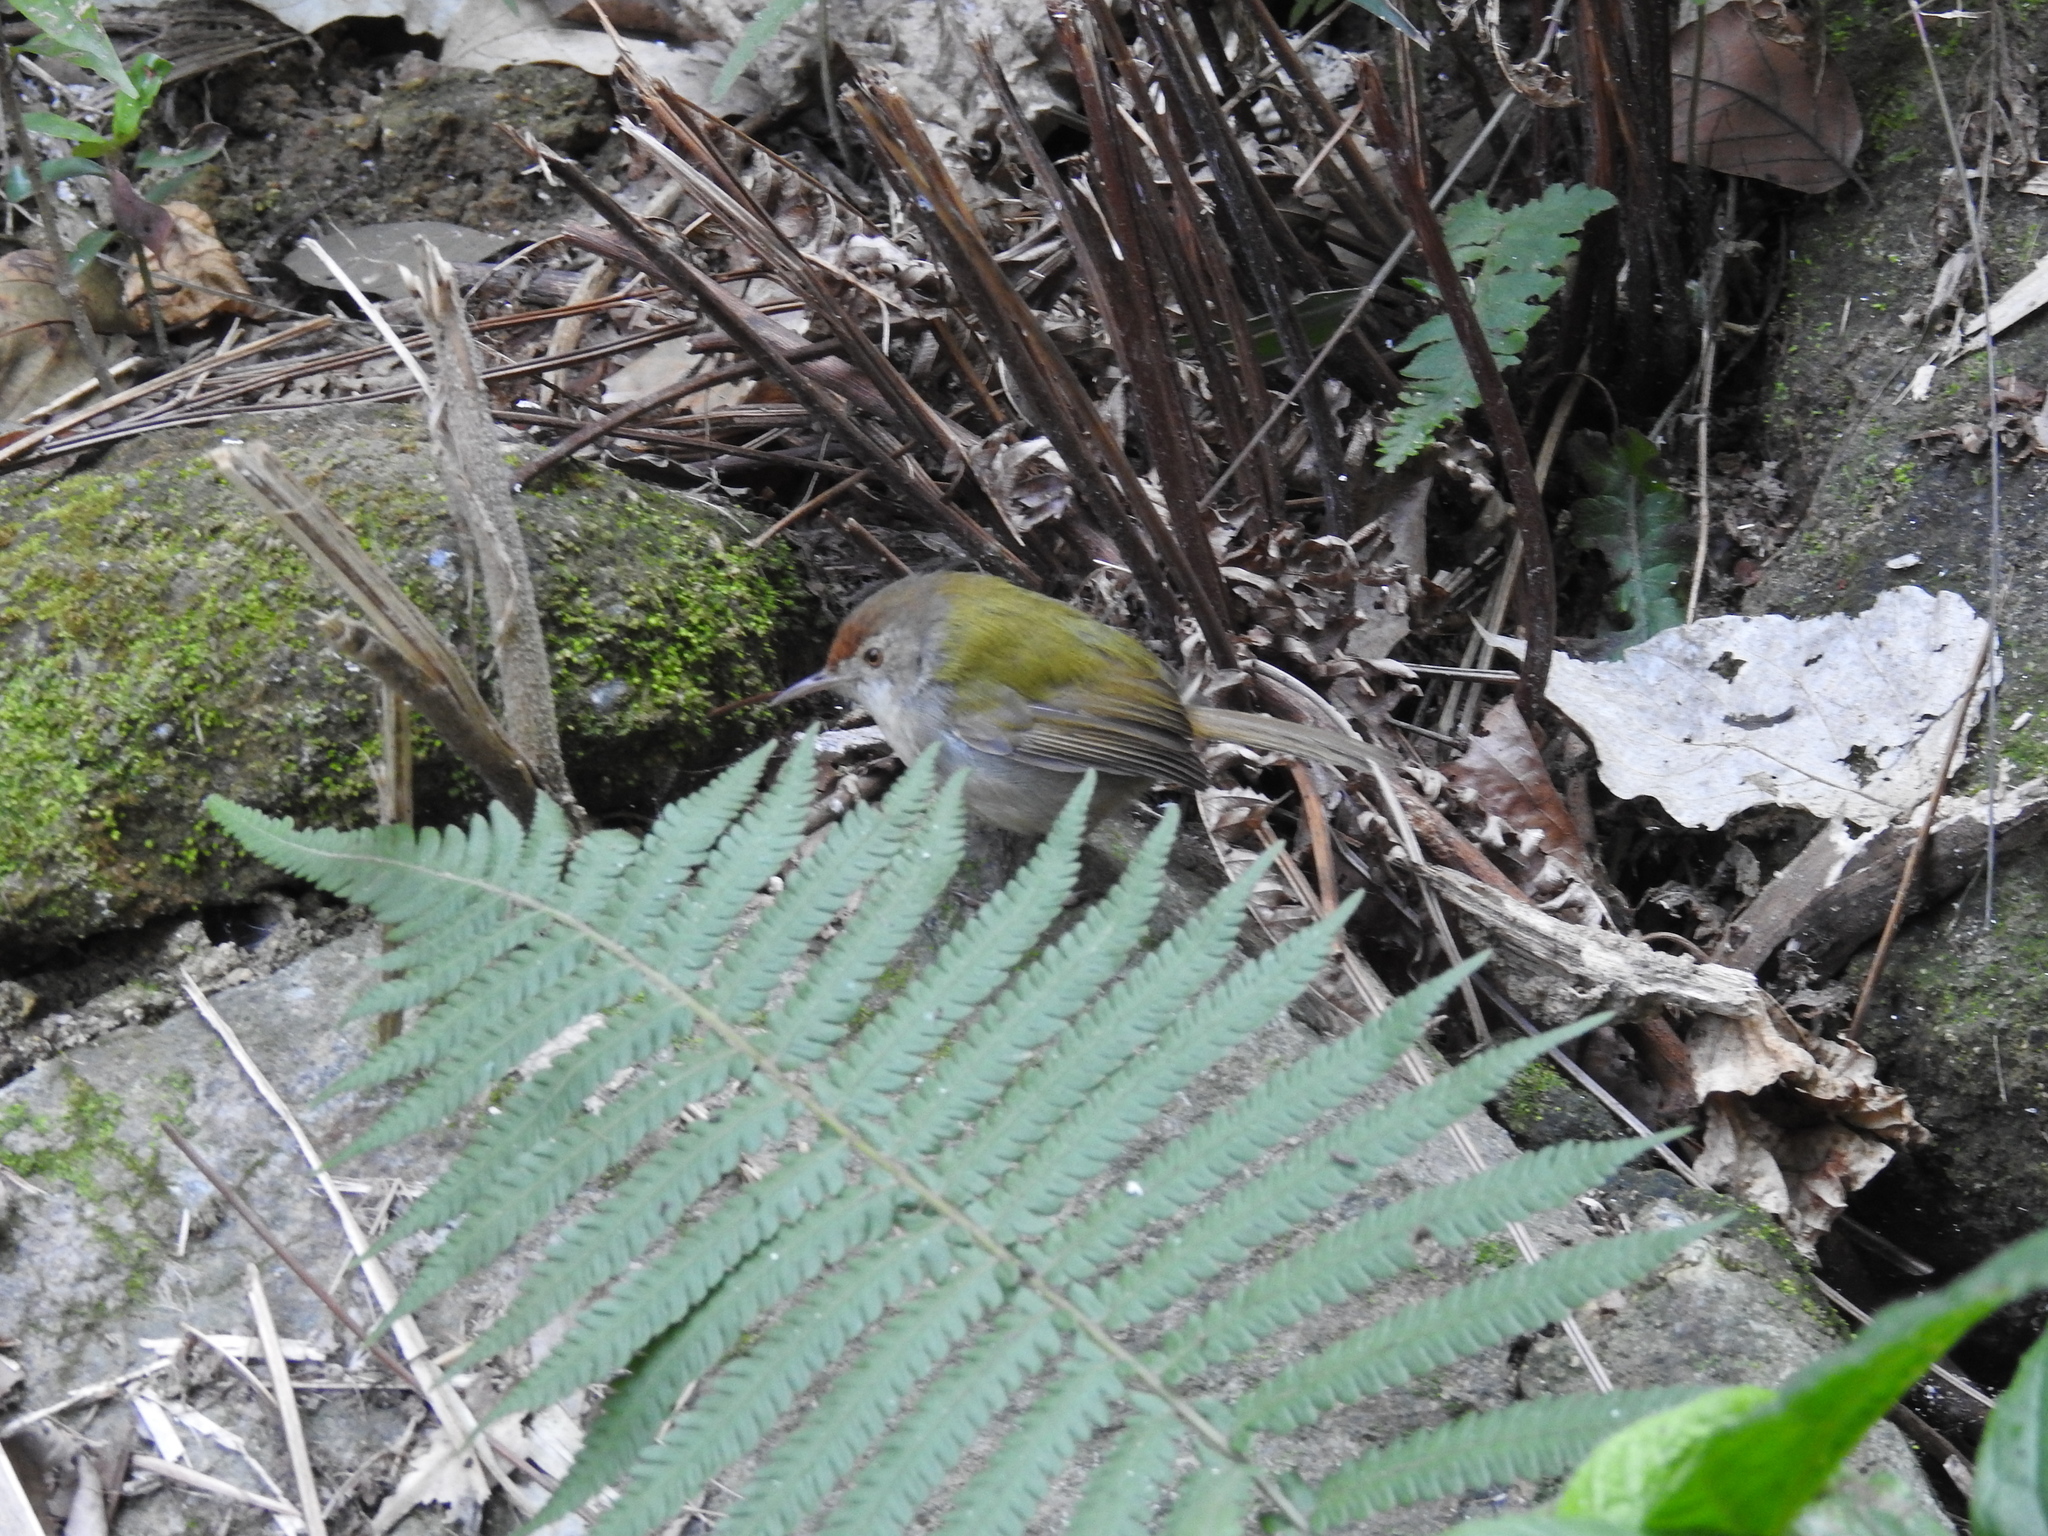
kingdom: Animalia
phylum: Chordata
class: Aves
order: Passeriformes
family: Cisticolidae
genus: Orthotomus
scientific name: Orthotomus sutorius
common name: Common tailorbird
